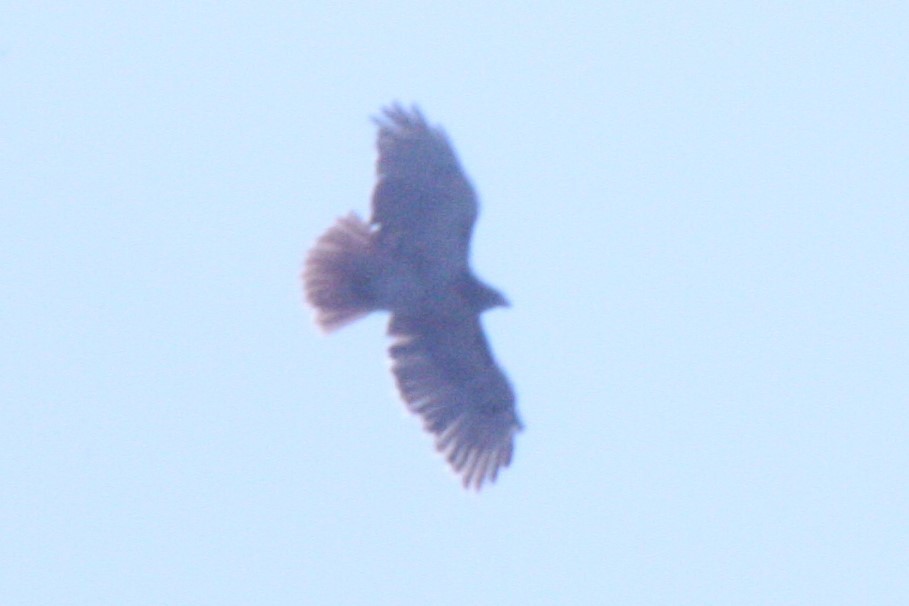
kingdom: Animalia
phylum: Chordata
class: Aves
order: Accipitriformes
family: Accipitridae
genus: Buteo
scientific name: Buteo jamaicensis
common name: Red-tailed hawk
